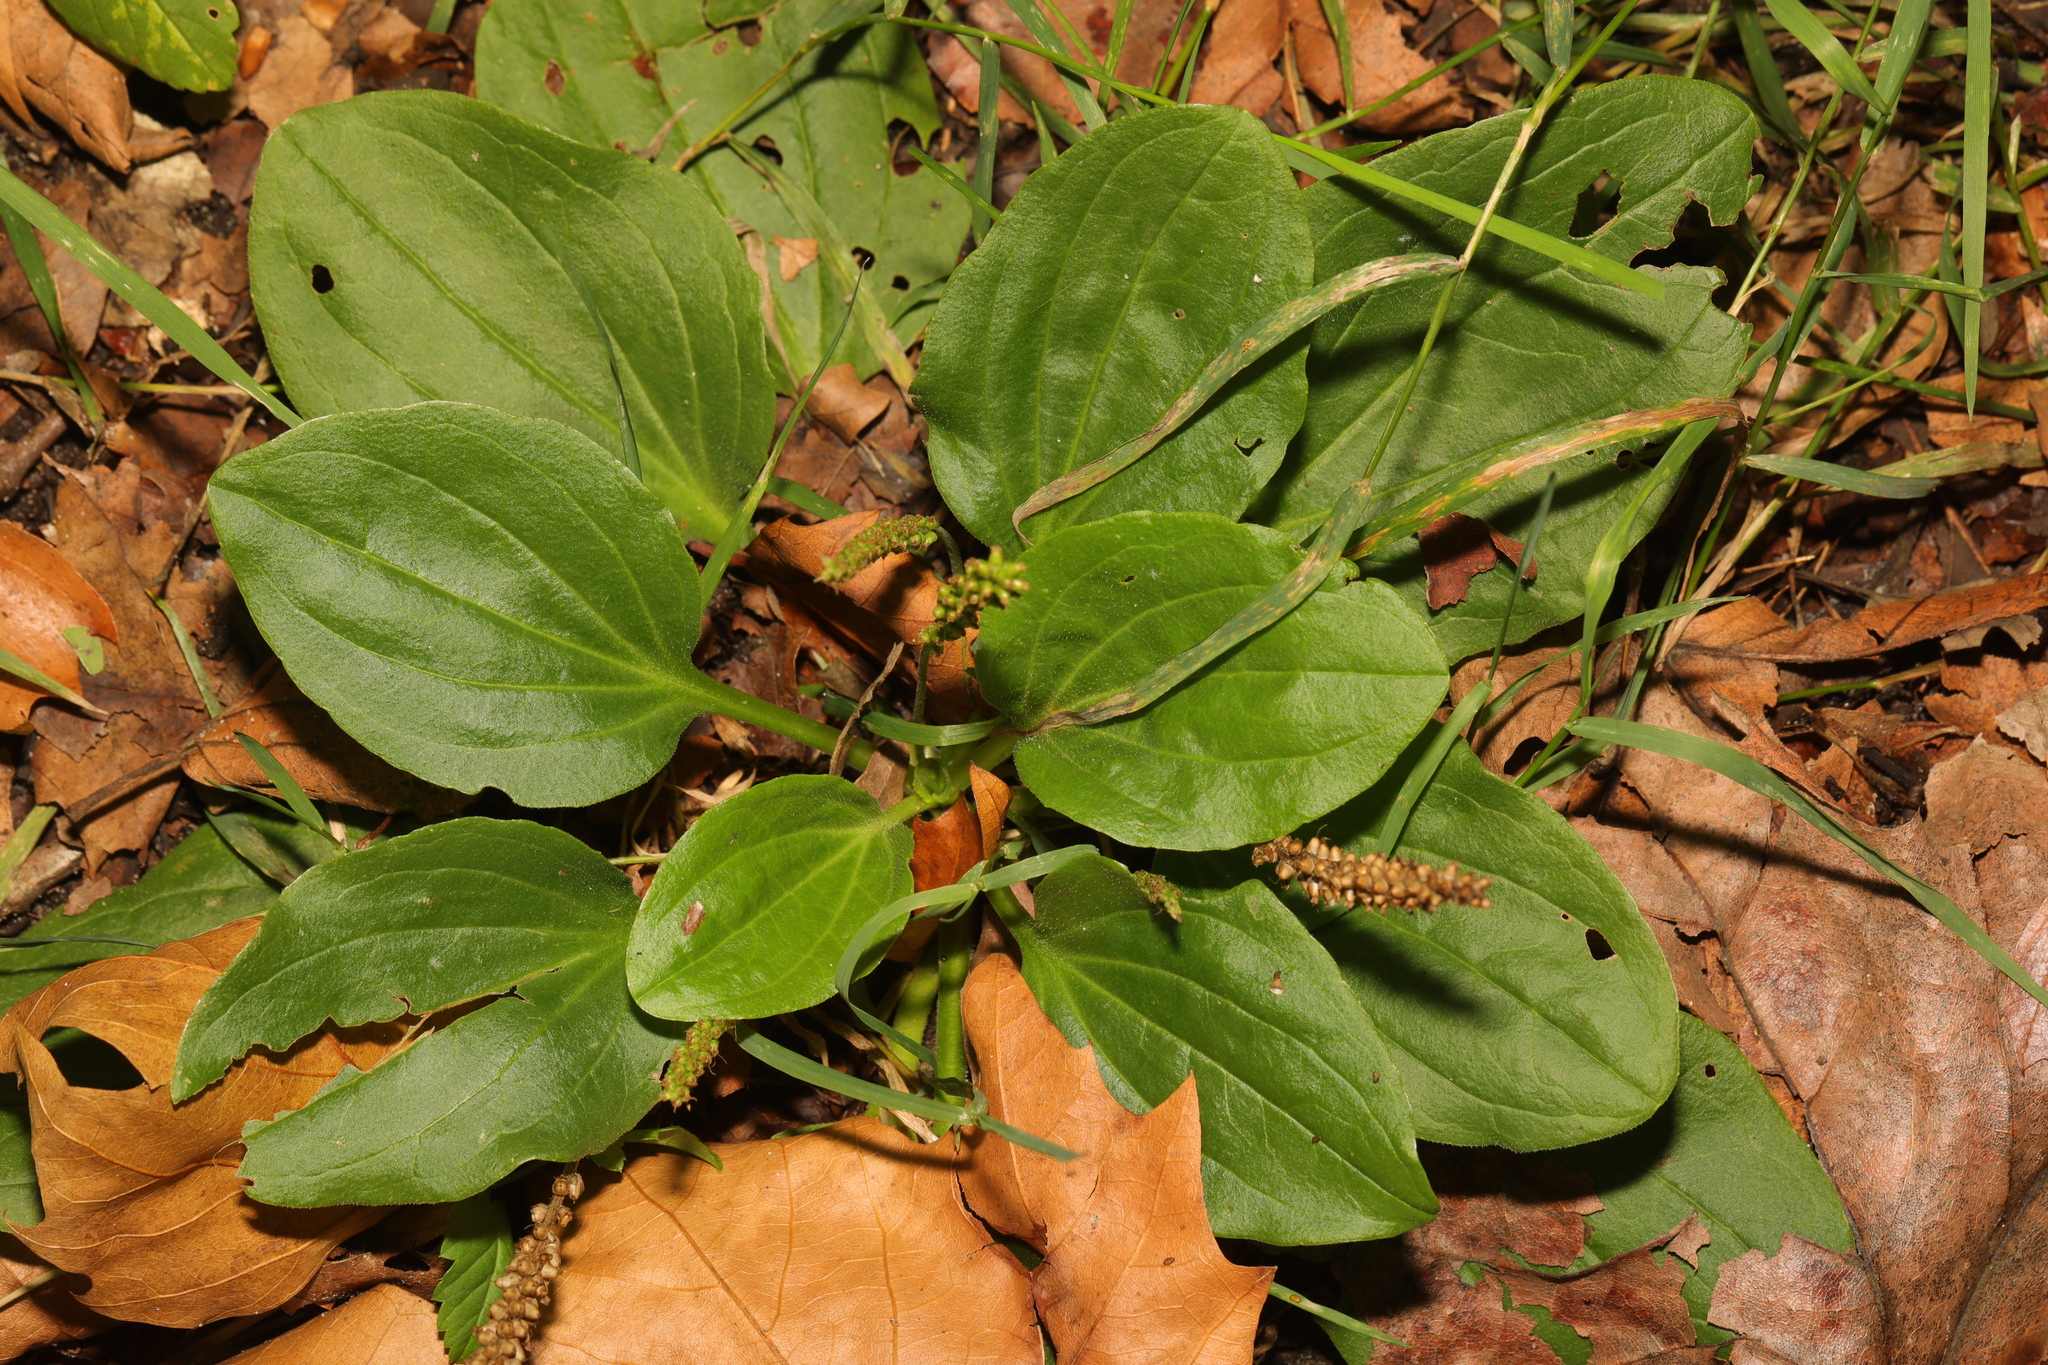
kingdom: Plantae
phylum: Tracheophyta
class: Magnoliopsida
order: Lamiales
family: Plantaginaceae
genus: Plantago
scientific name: Plantago major
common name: Common plantain
